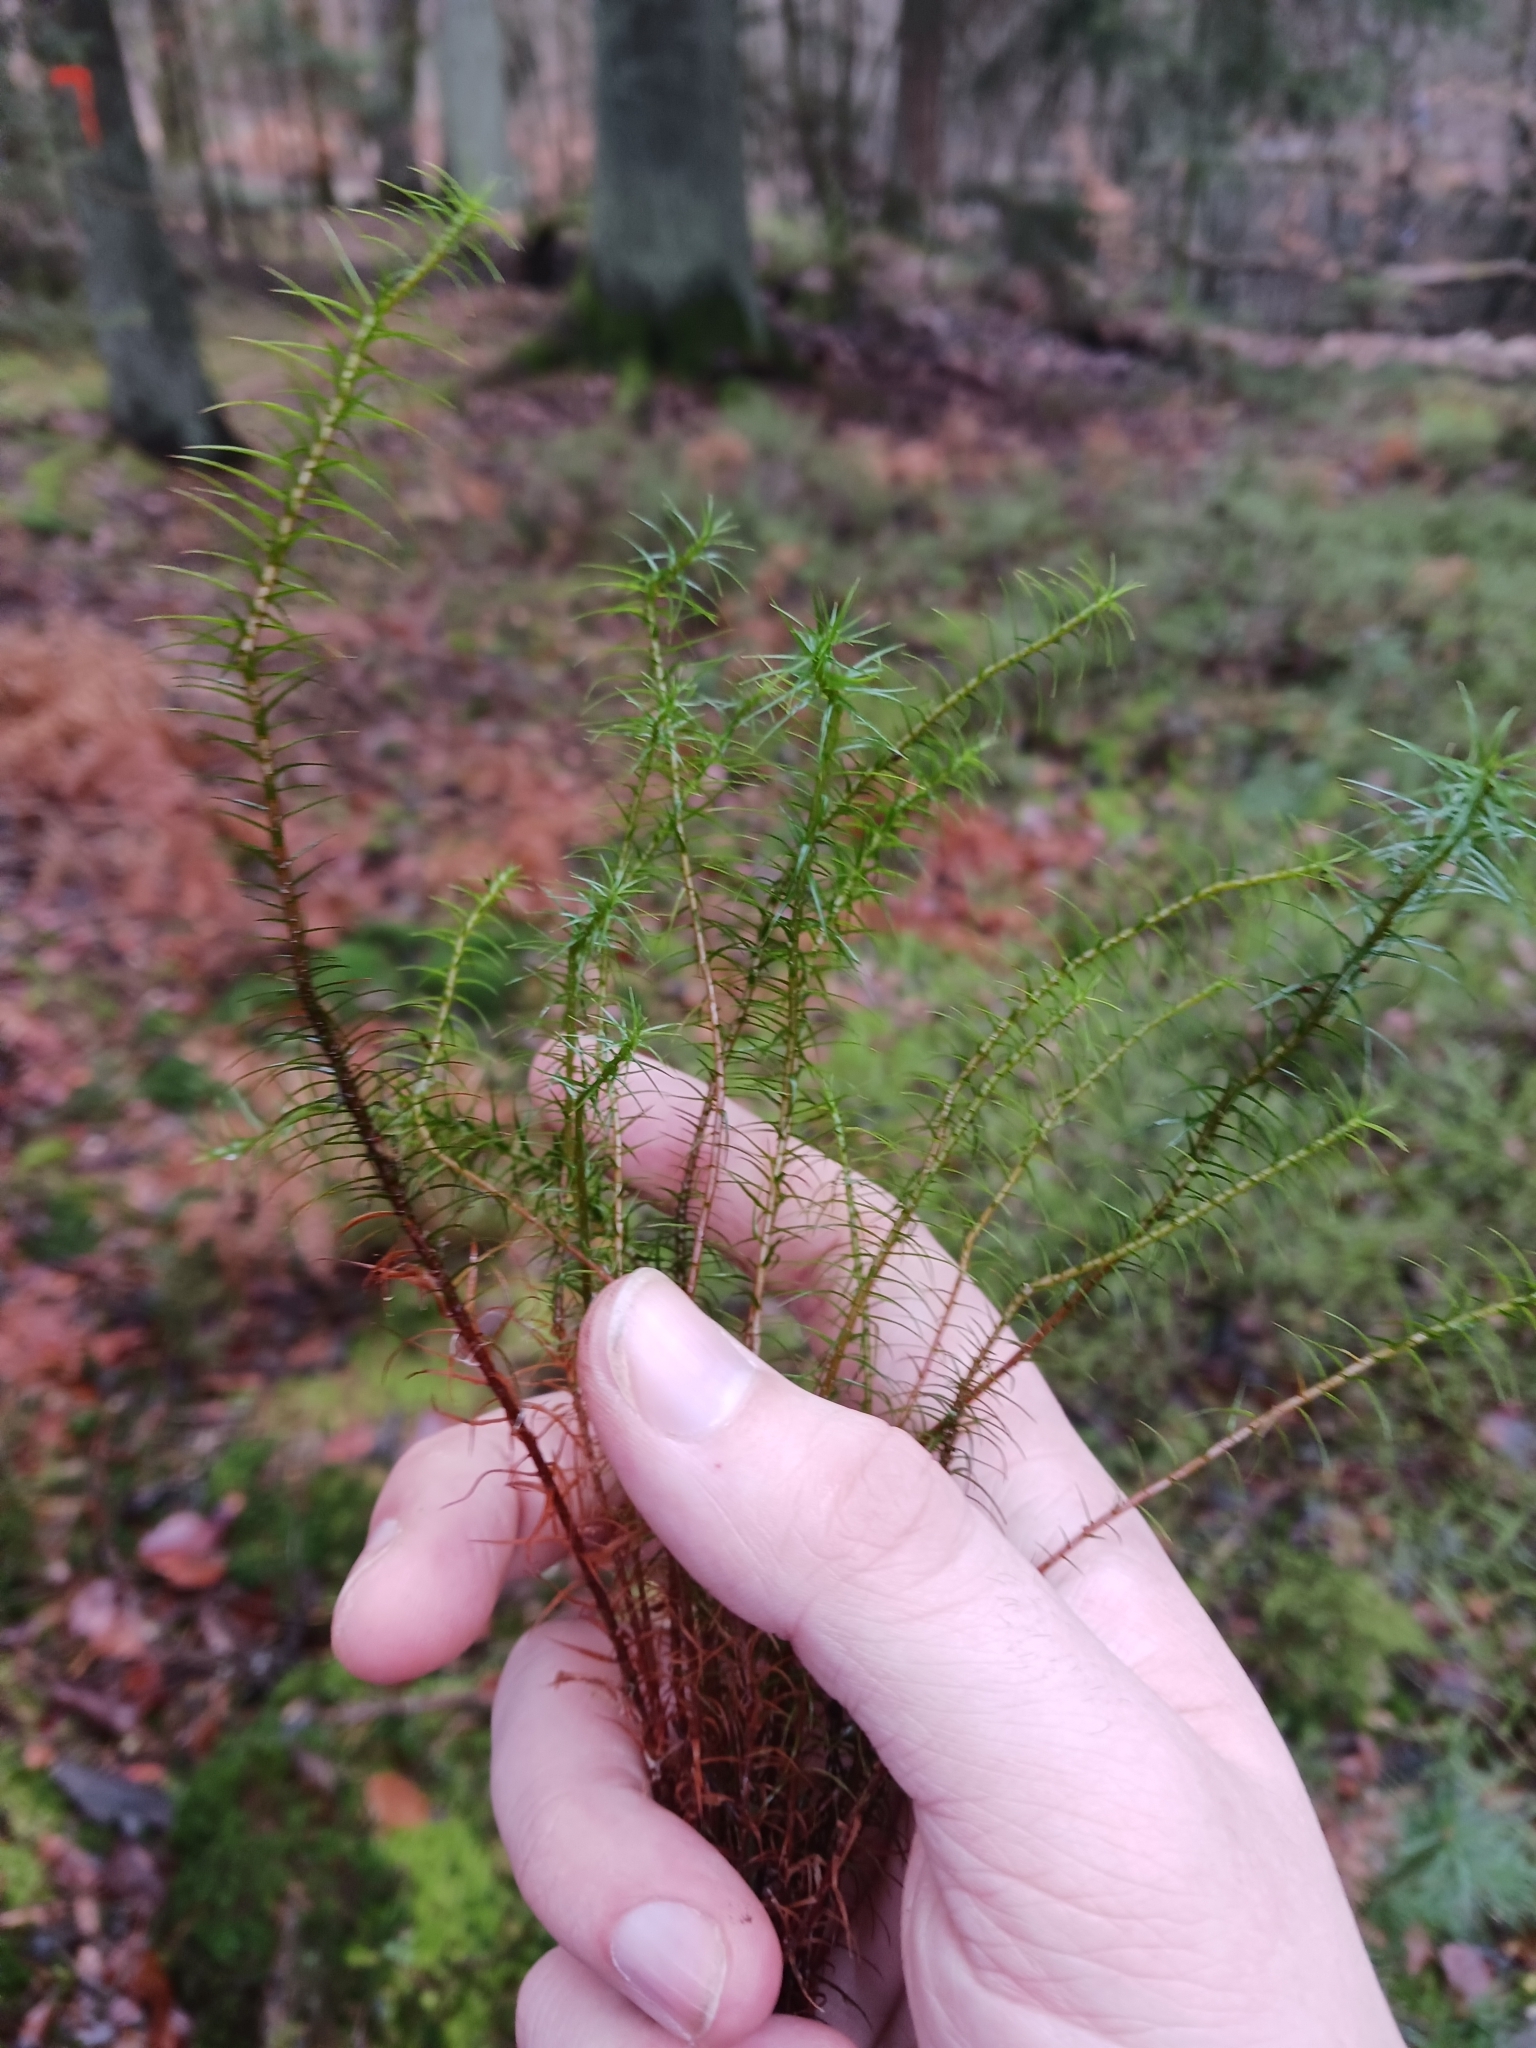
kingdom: Plantae
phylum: Bryophyta
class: Polytrichopsida
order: Polytrichales
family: Polytrichaceae
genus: Polytrichum
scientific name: Polytrichum commune
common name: Common haircap
